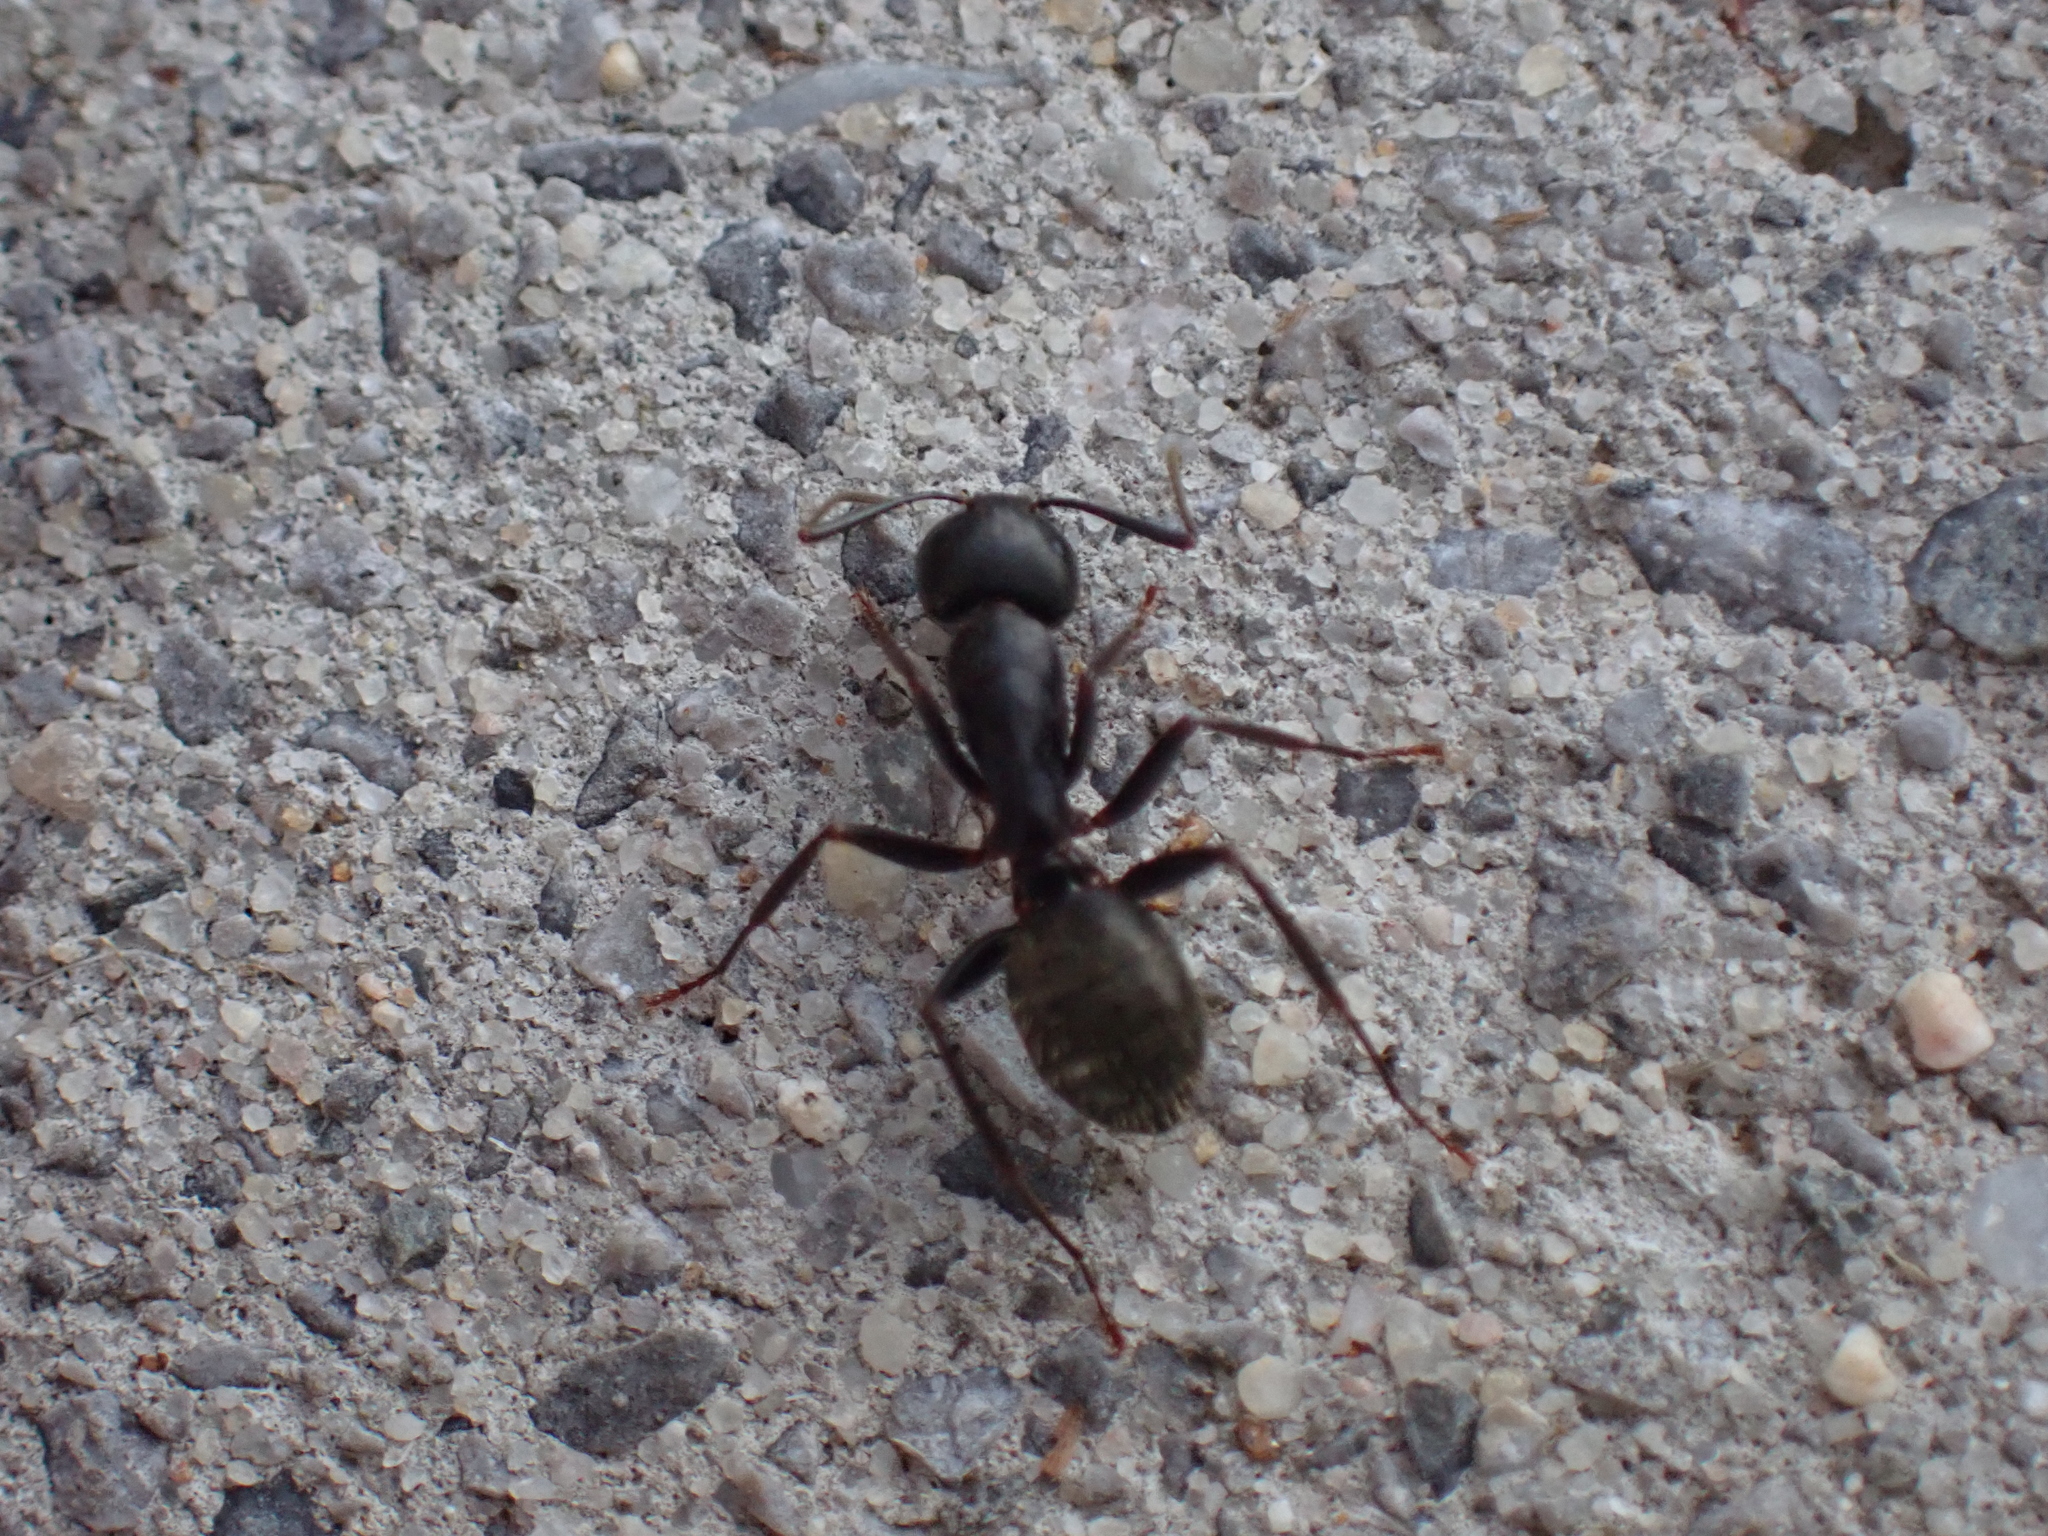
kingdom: Animalia
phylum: Arthropoda
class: Insecta
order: Hymenoptera
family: Formicidae
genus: Camponotus
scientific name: Camponotus pennsylvanicus
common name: Black carpenter ant
